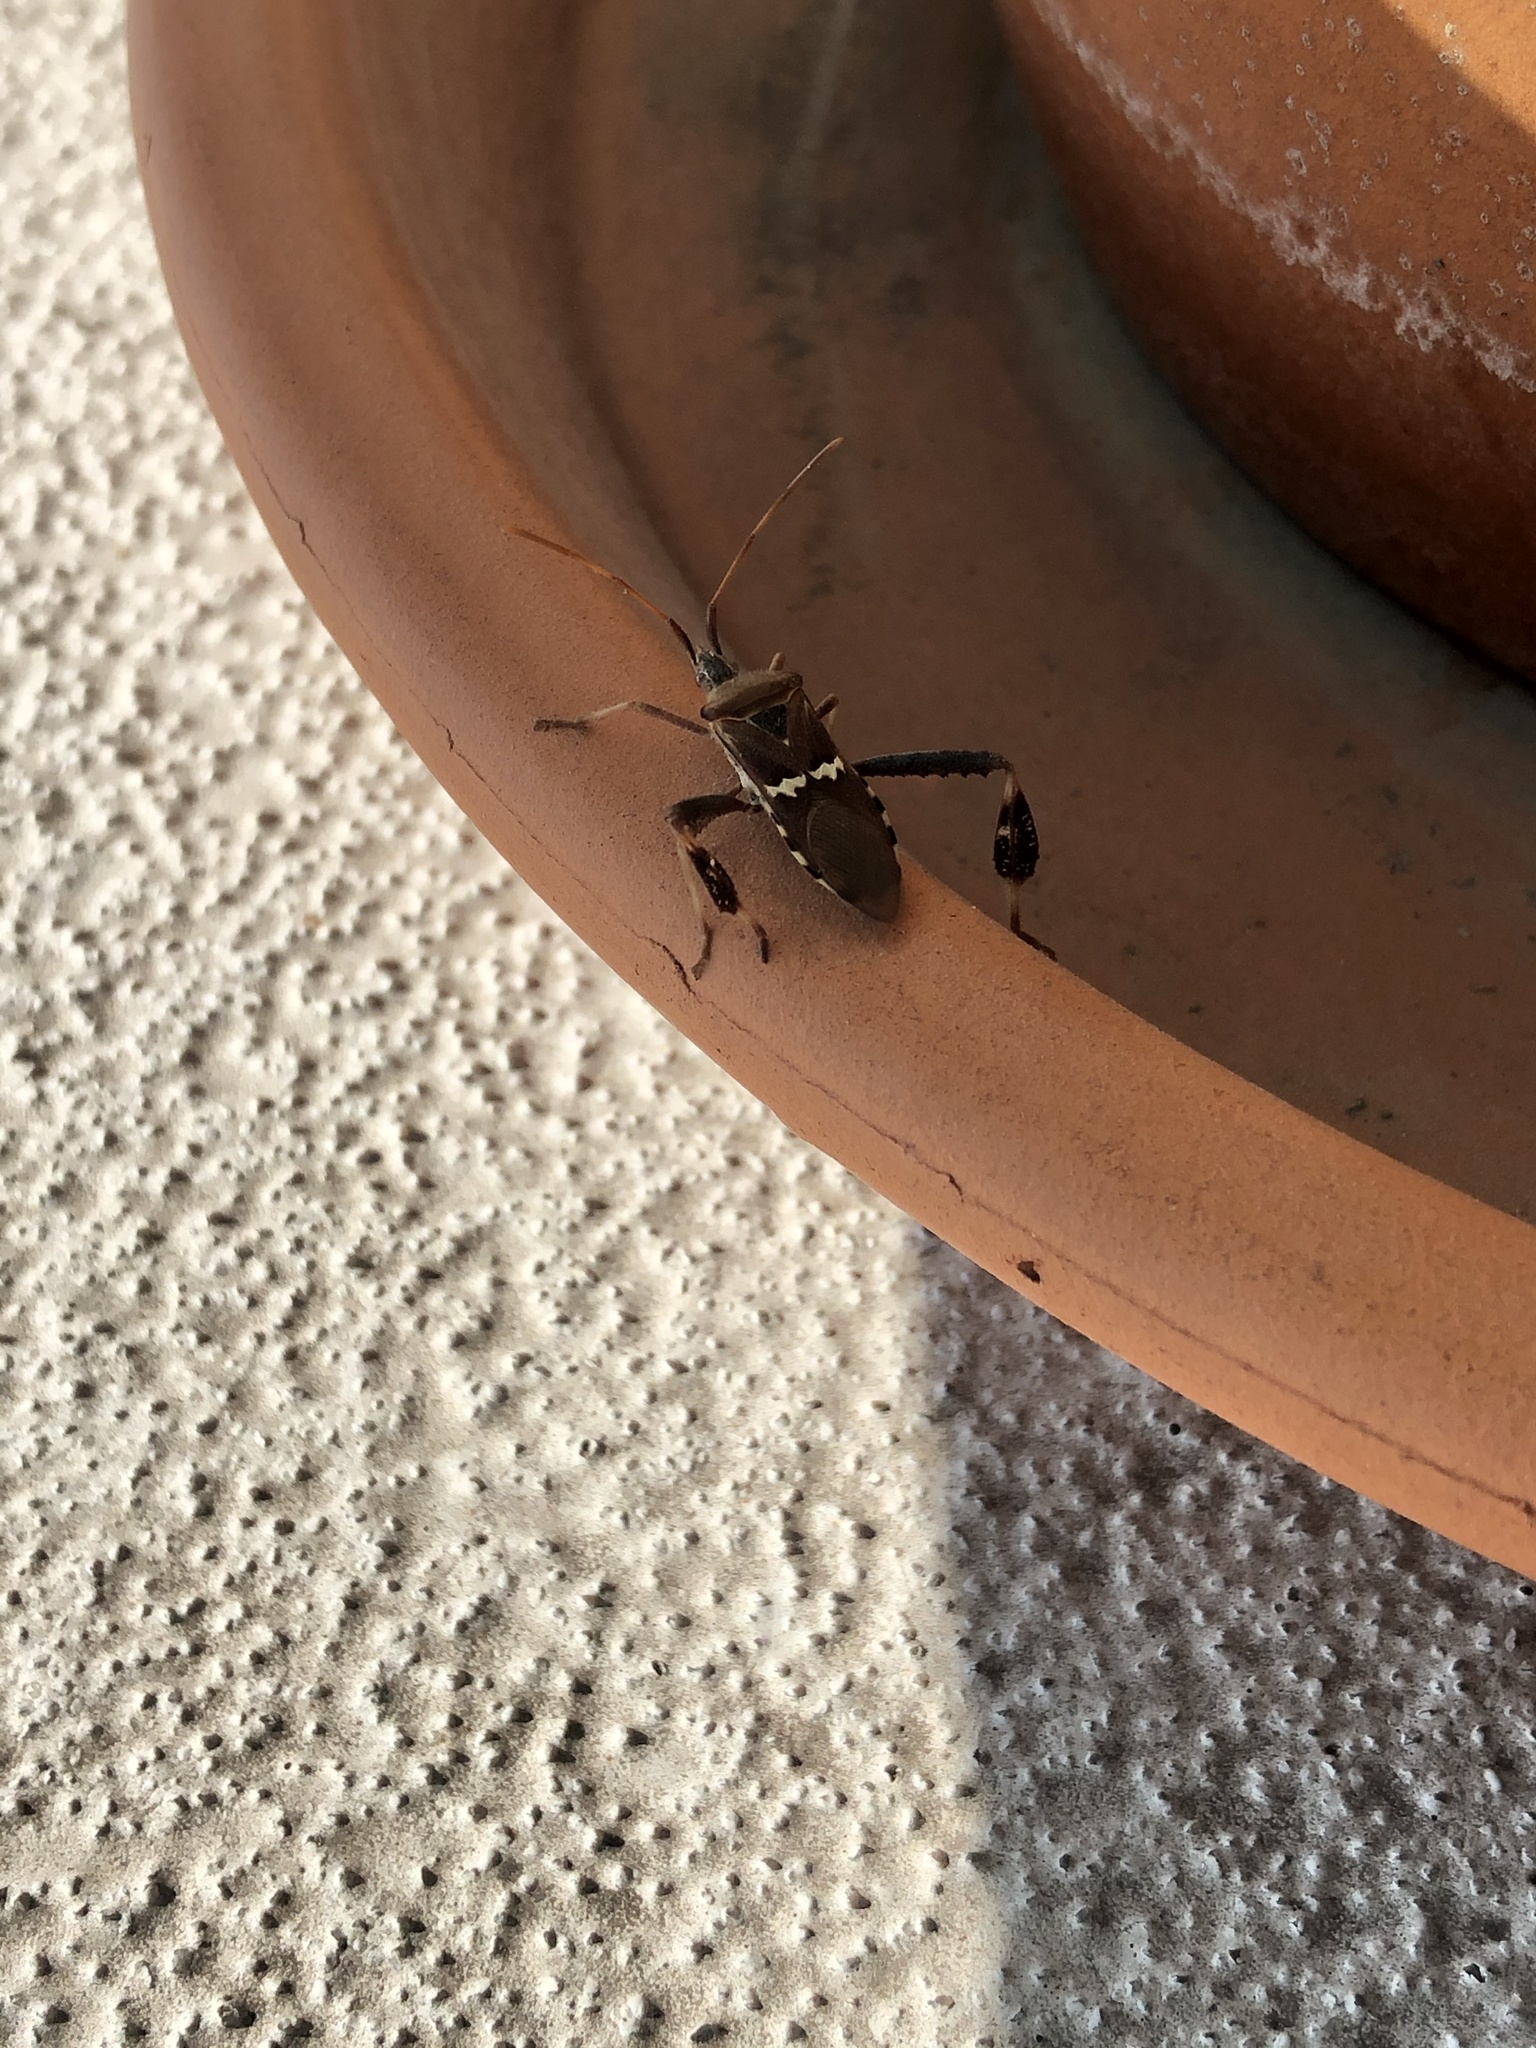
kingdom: Animalia
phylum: Arthropoda
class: Insecta
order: Hemiptera
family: Coreidae
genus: Leptoglossus
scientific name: Leptoglossus clypealis
